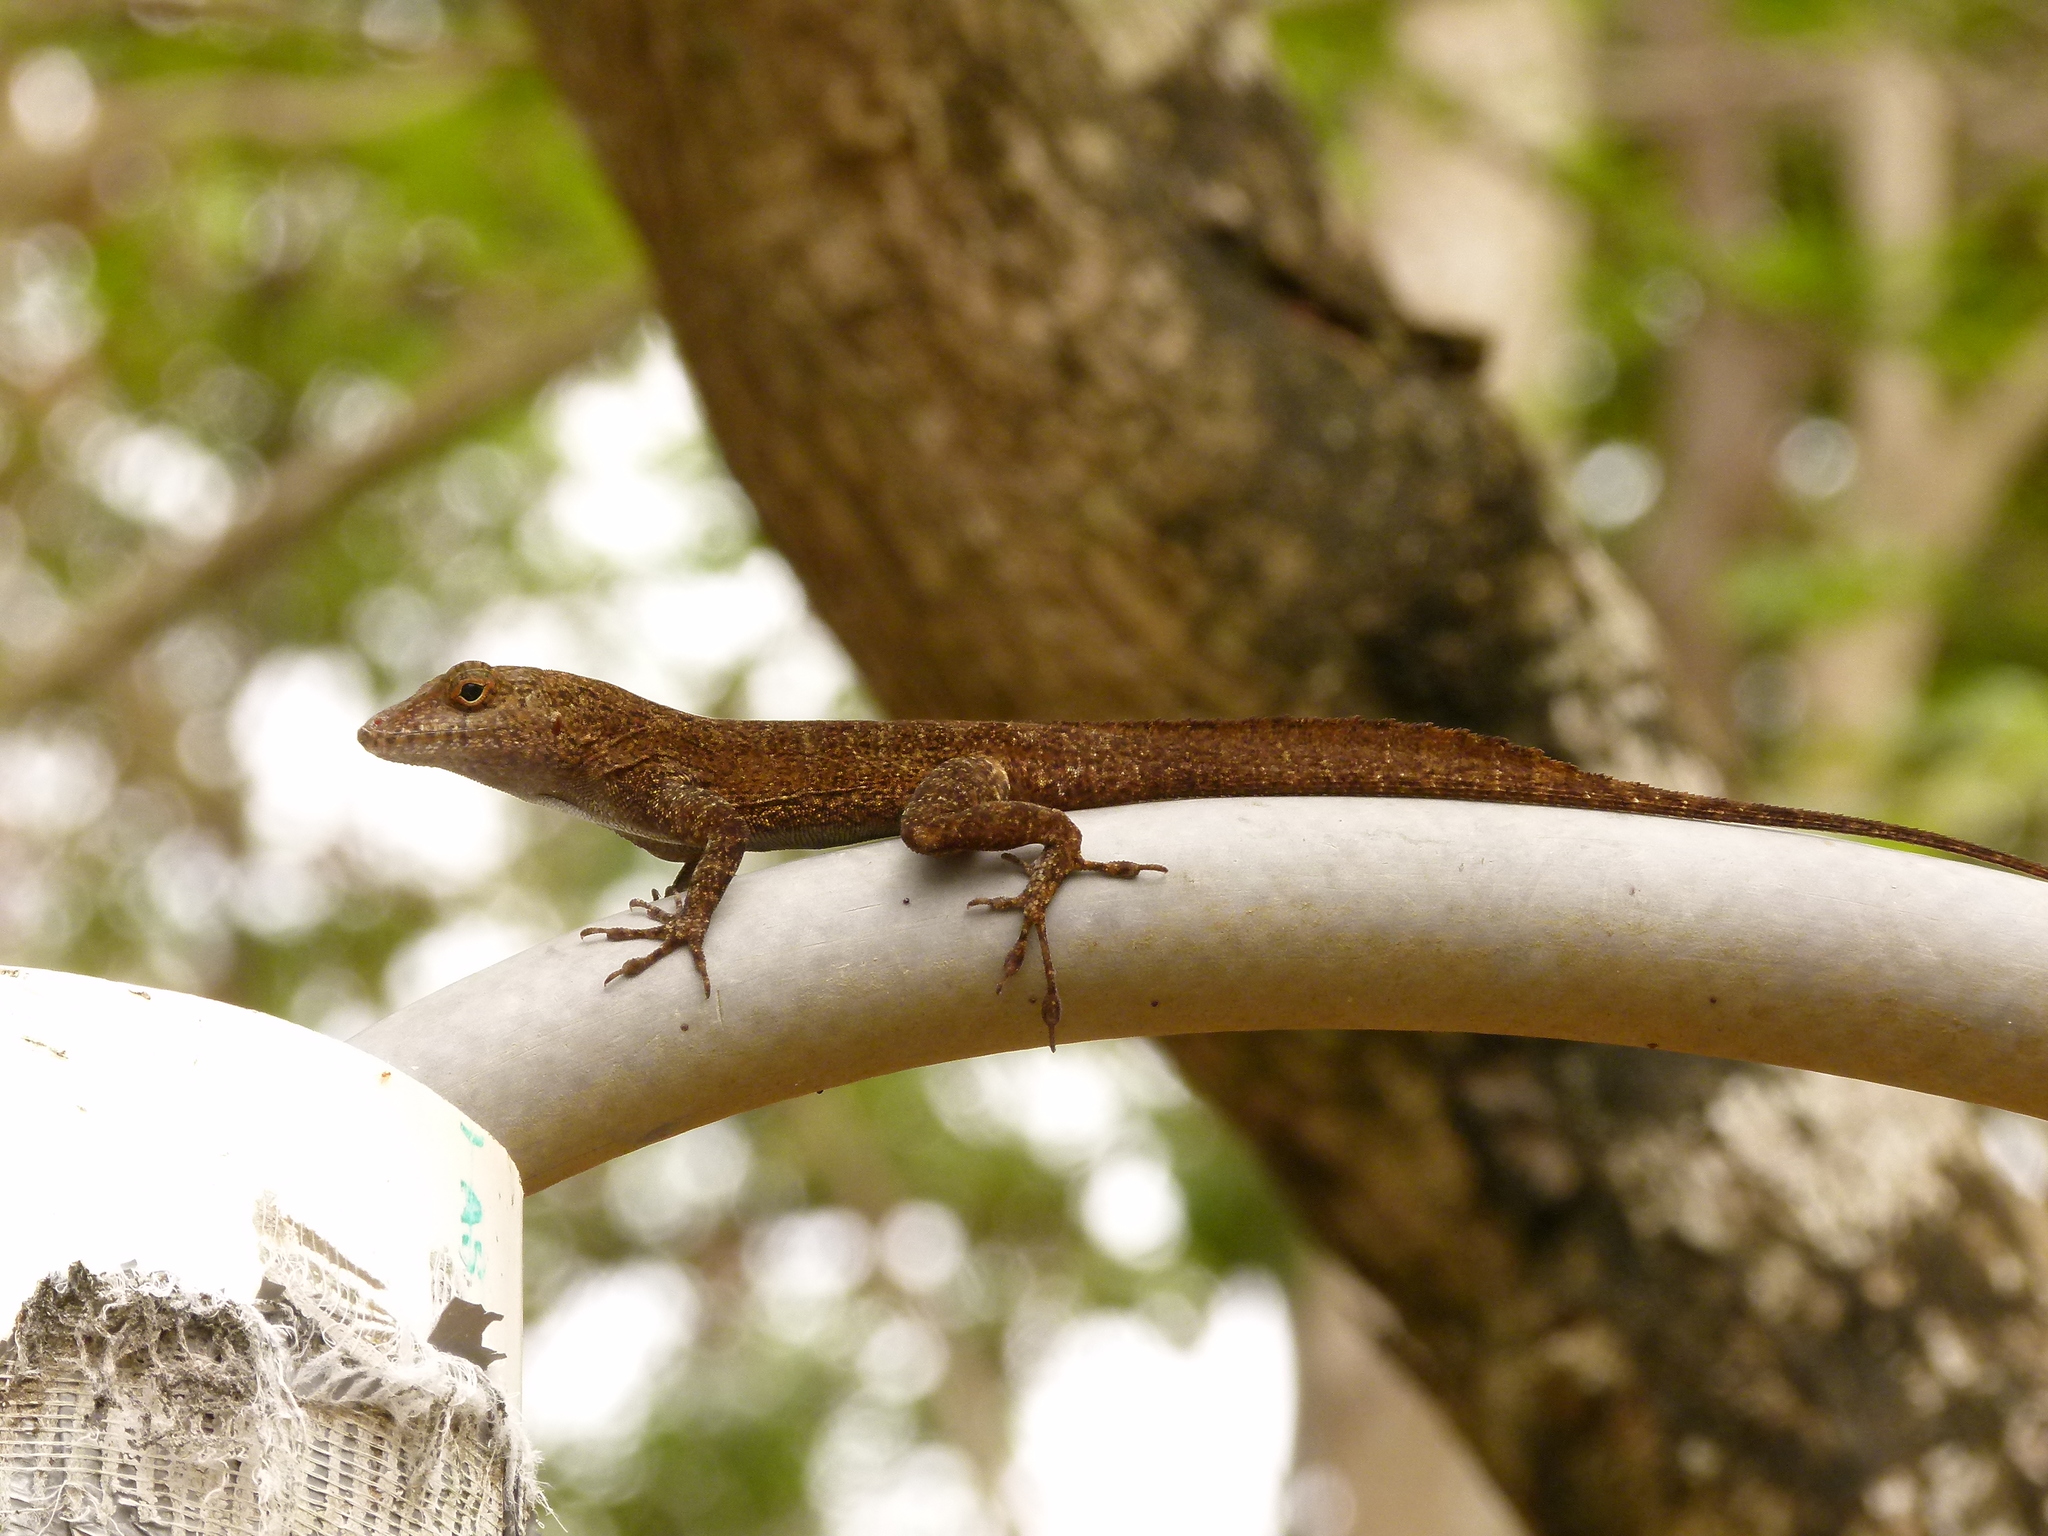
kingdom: Animalia
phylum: Chordata
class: Squamata
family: Dactyloidae
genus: Anolis
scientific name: Anolis cristatellus
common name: Crested anole
